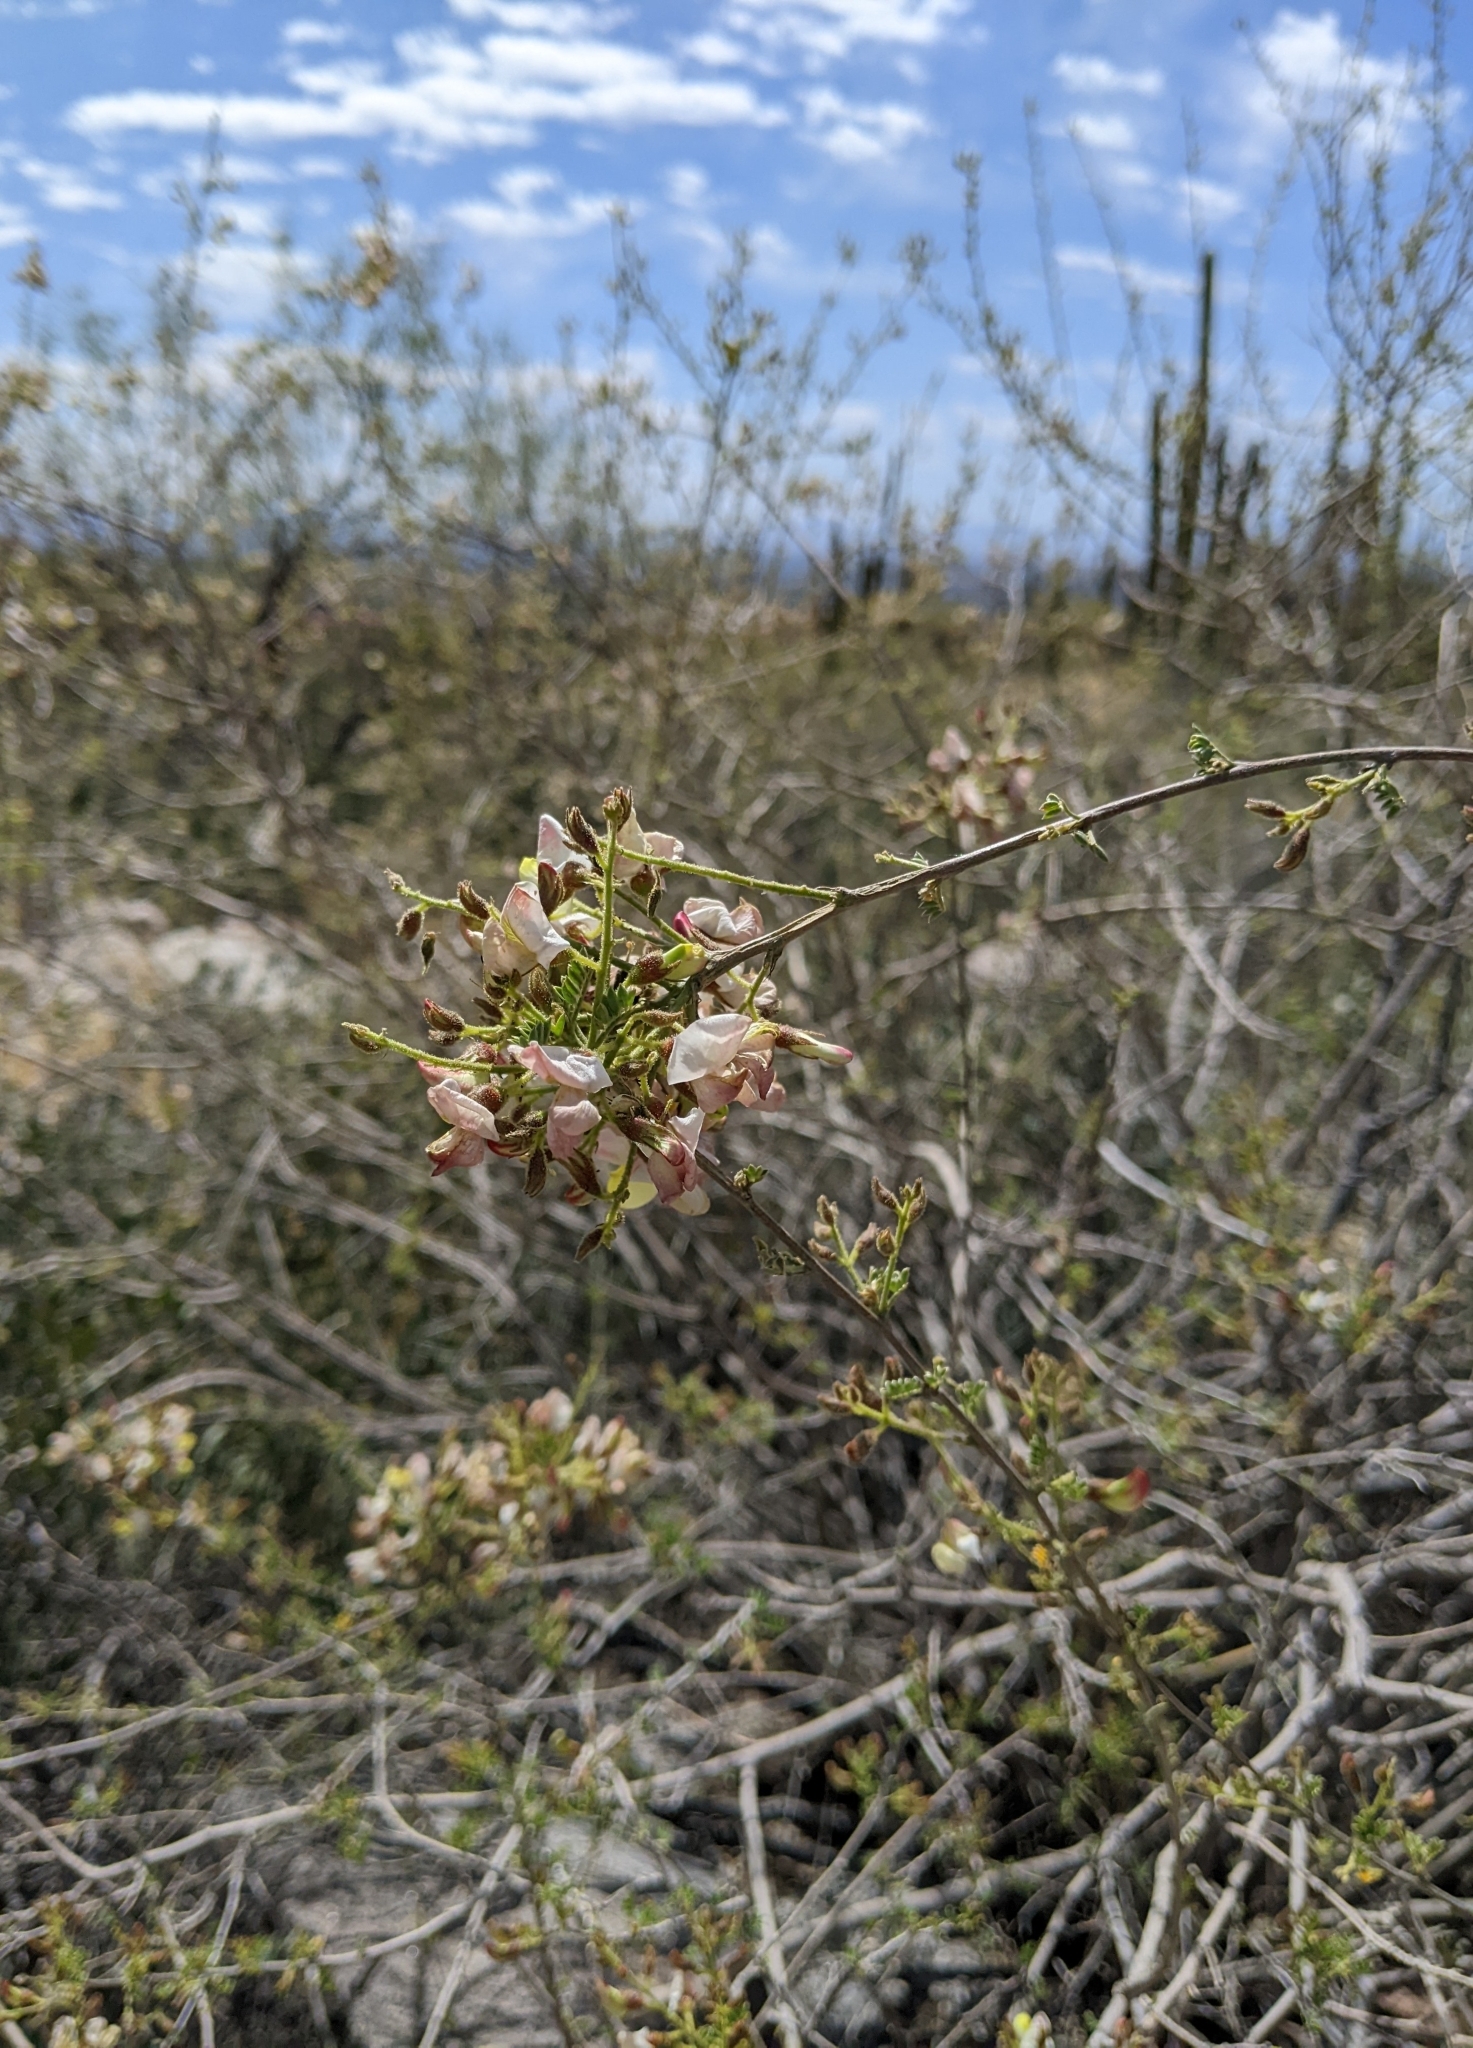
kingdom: Plantae
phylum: Tracheophyta
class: Magnoliopsida
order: Fabales
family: Fabaceae
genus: Coursetia
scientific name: Coursetia glandulosa
